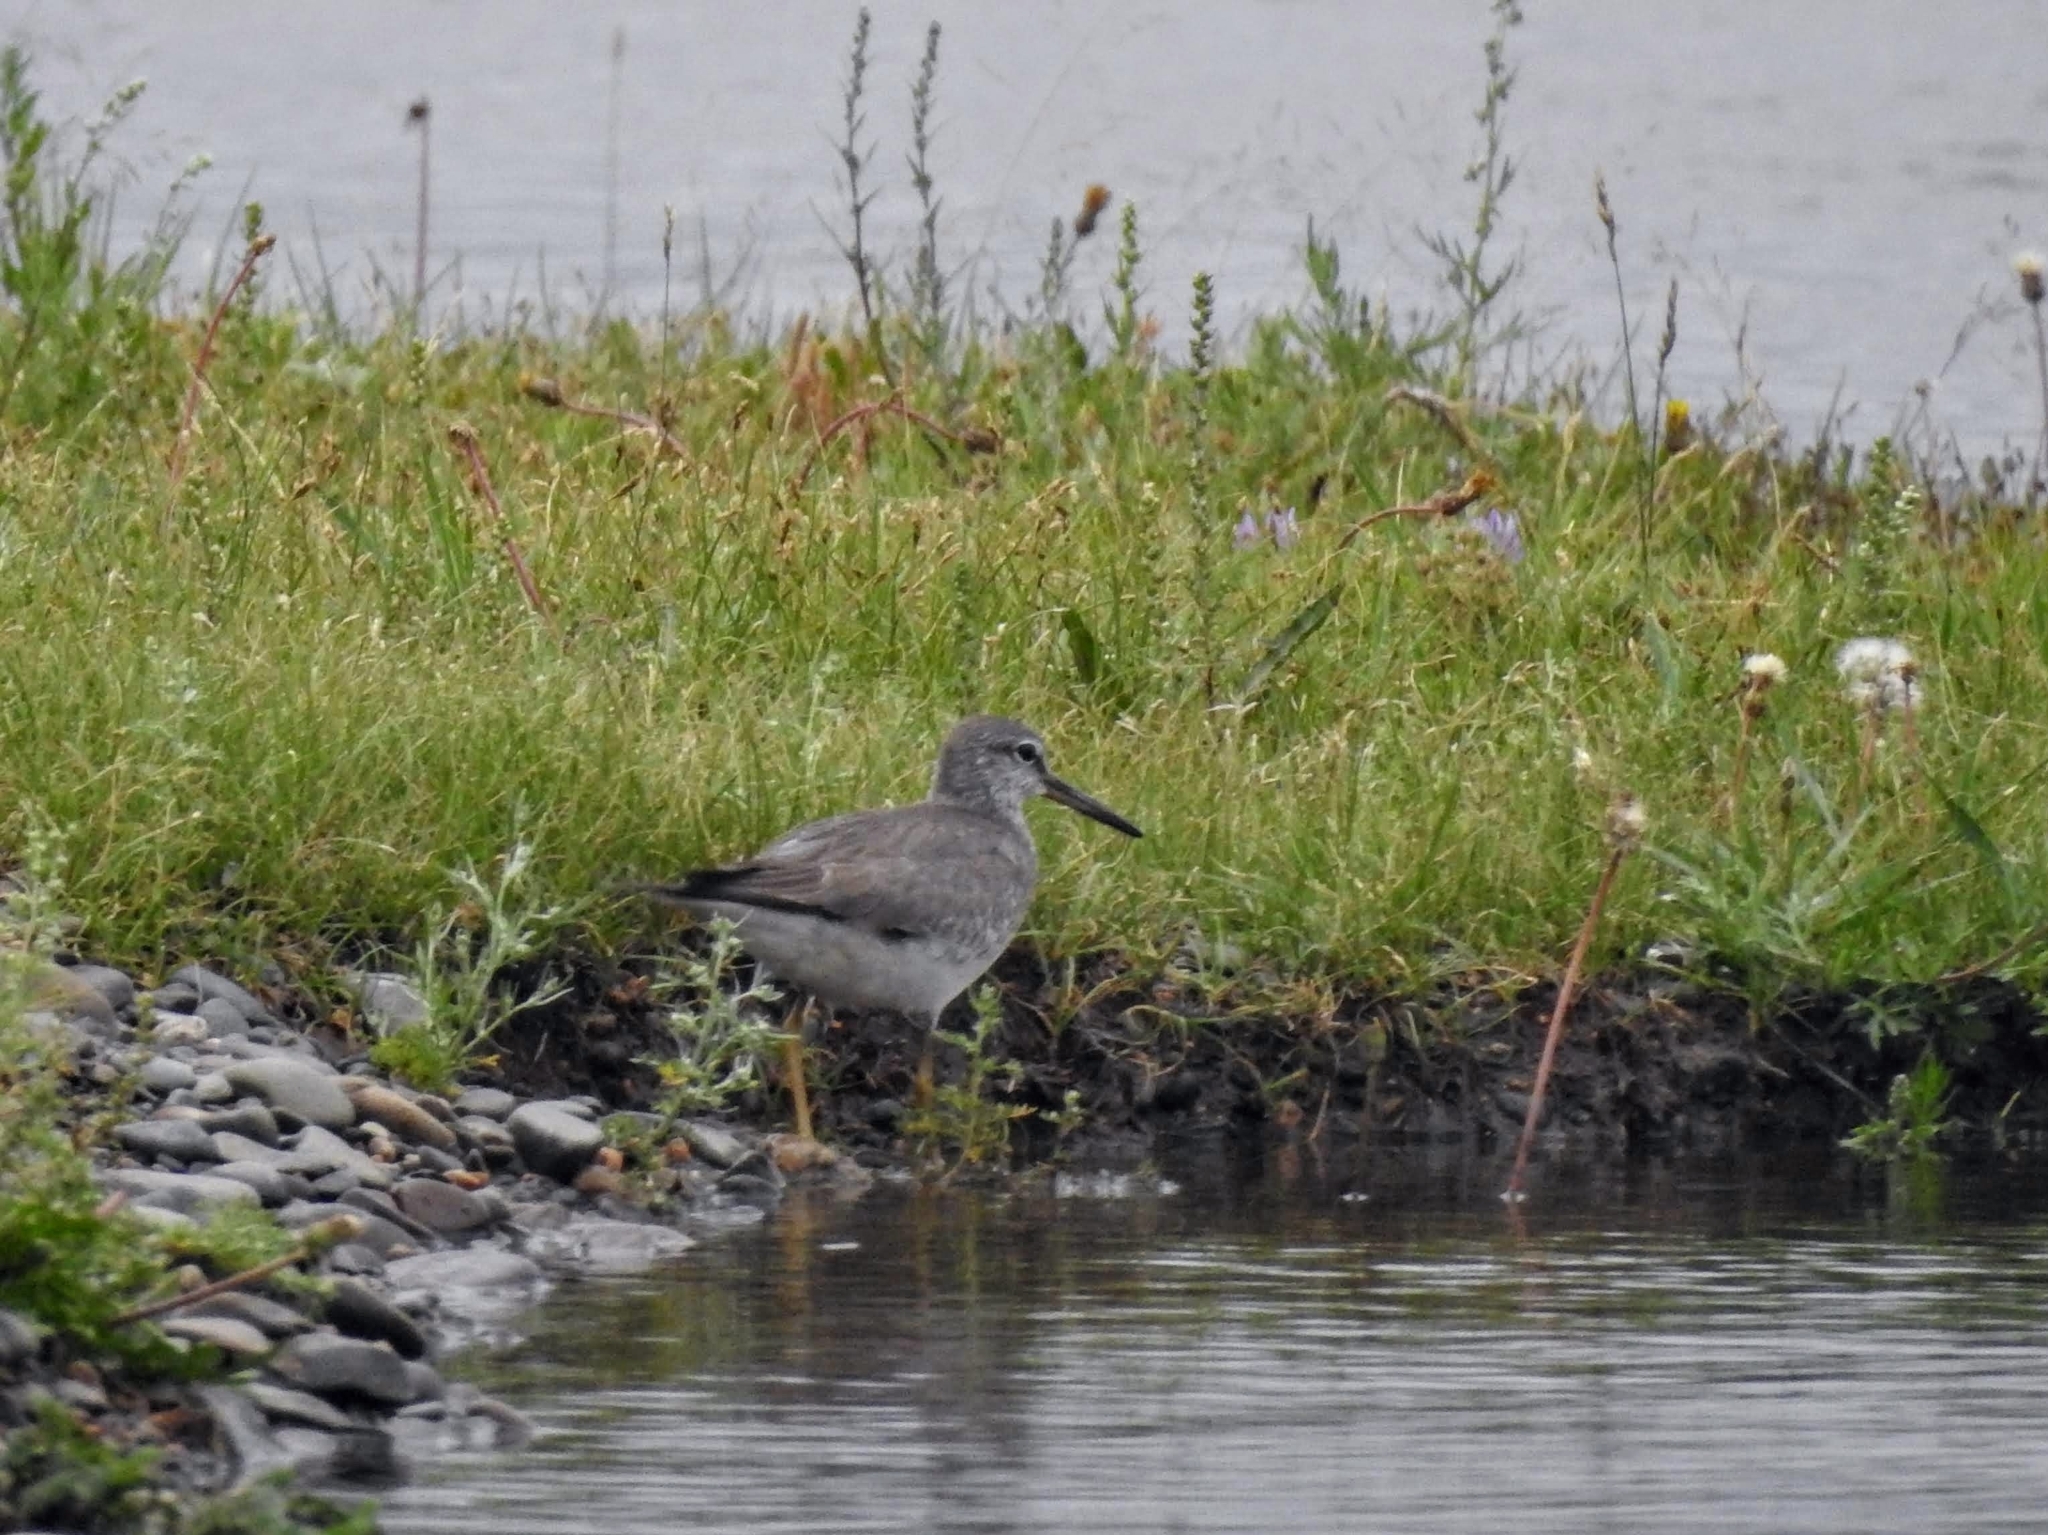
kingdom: Animalia
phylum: Chordata
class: Aves
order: Charadriiformes
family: Scolopacidae
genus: Tringa
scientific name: Tringa brevipes
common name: Grey-tailed tattler
